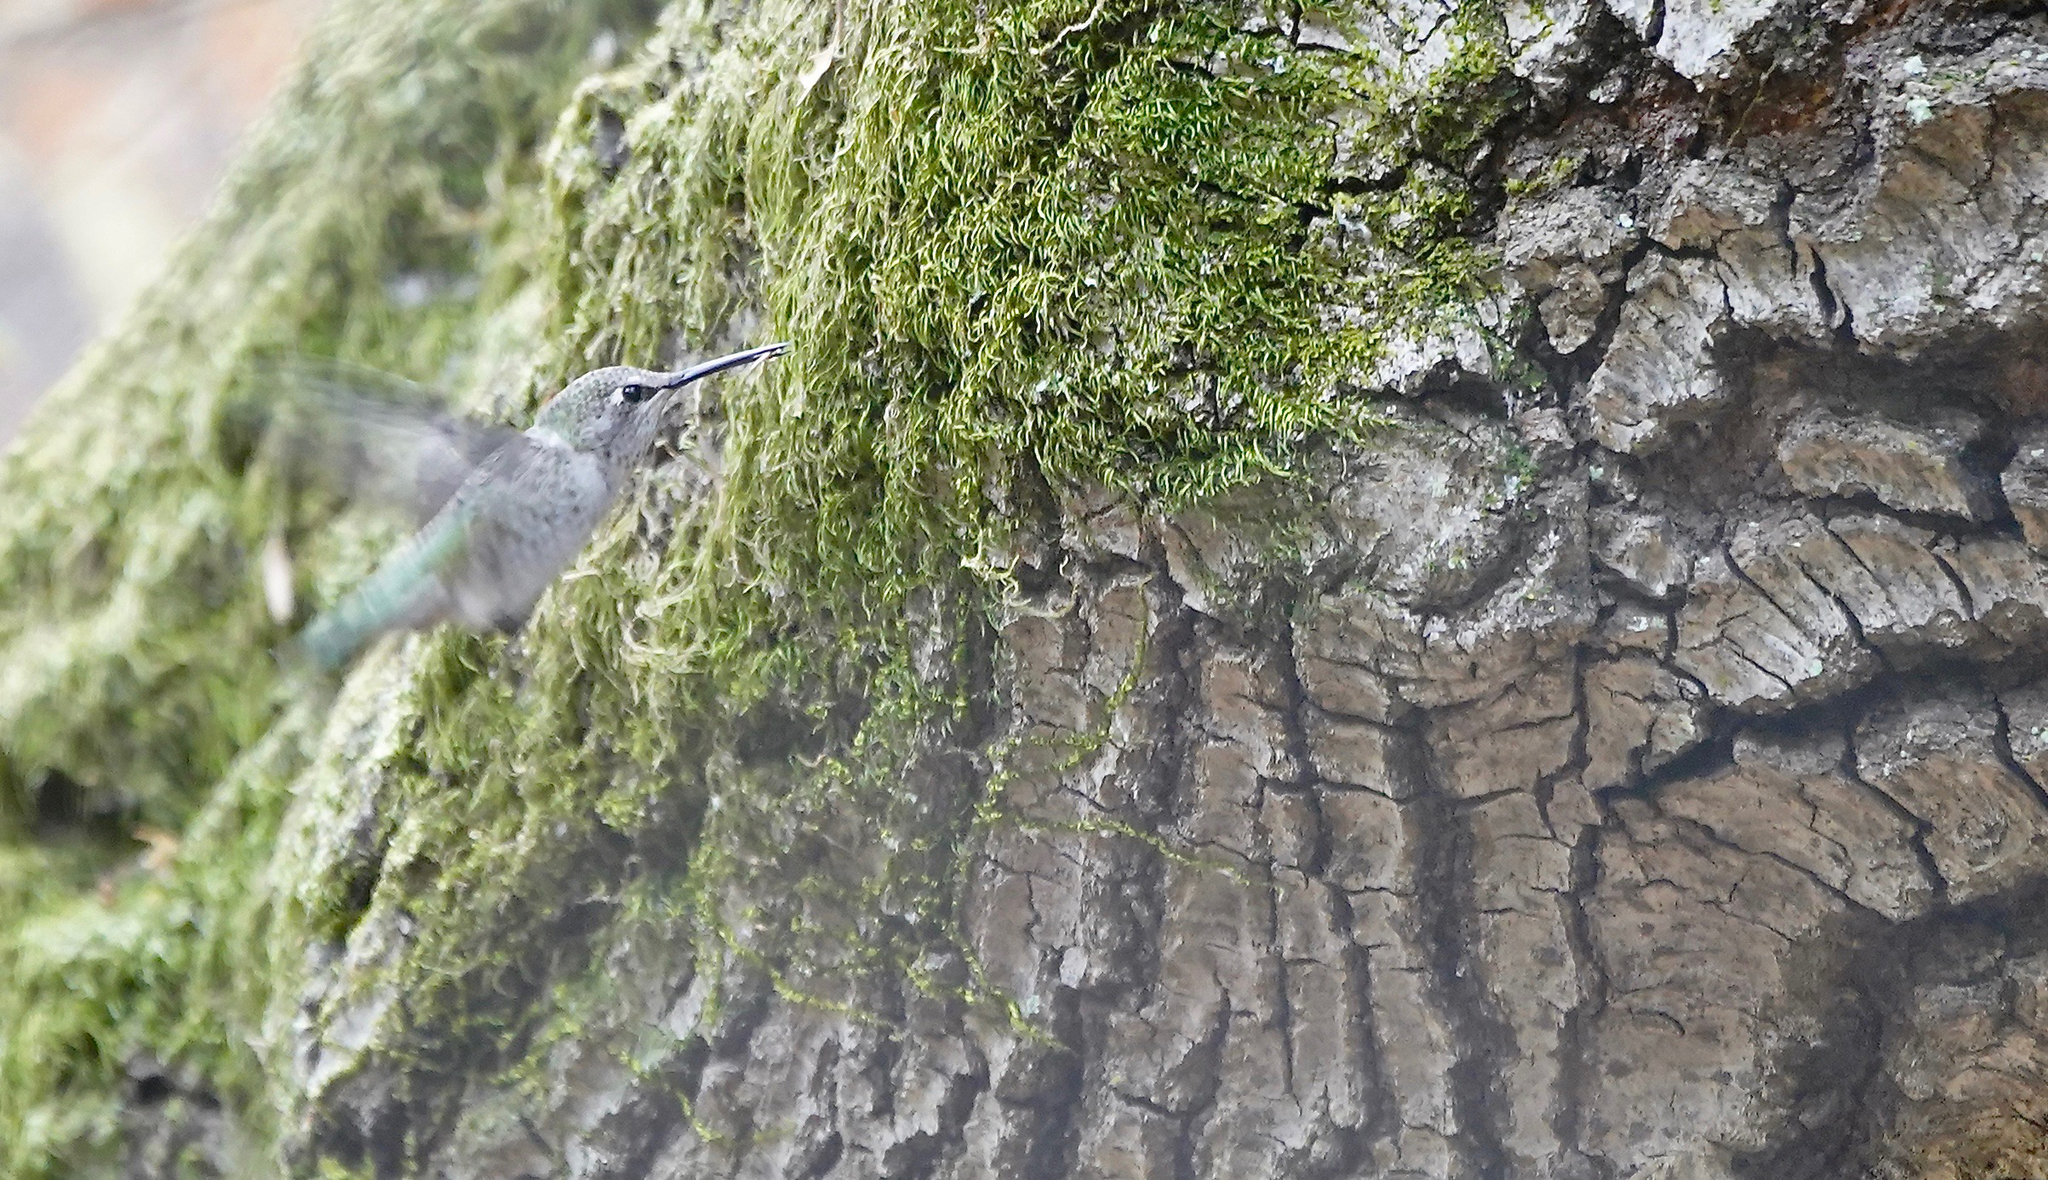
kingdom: Animalia
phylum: Chordata
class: Aves
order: Apodiformes
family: Trochilidae
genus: Calypte
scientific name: Calypte anna
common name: Anna's hummingbird
